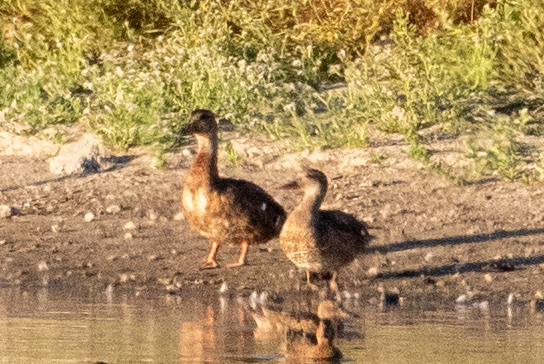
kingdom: Animalia
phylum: Chordata
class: Aves
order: Anseriformes
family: Anatidae
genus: Anas
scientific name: Anas platyrhynchos
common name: Mallard
